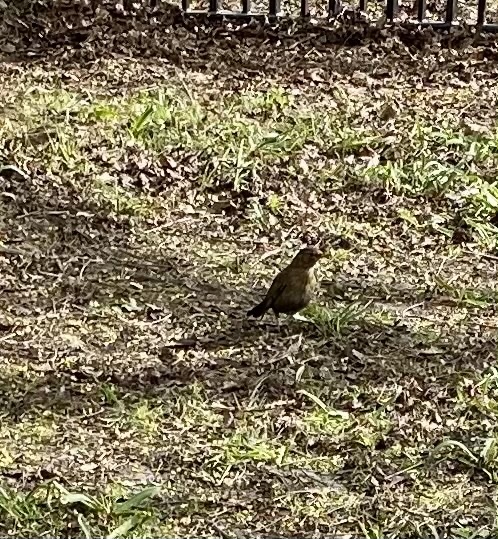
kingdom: Animalia
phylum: Chordata
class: Aves
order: Passeriformes
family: Turdidae
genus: Turdus
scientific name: Turdus merula
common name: Common blackbird
